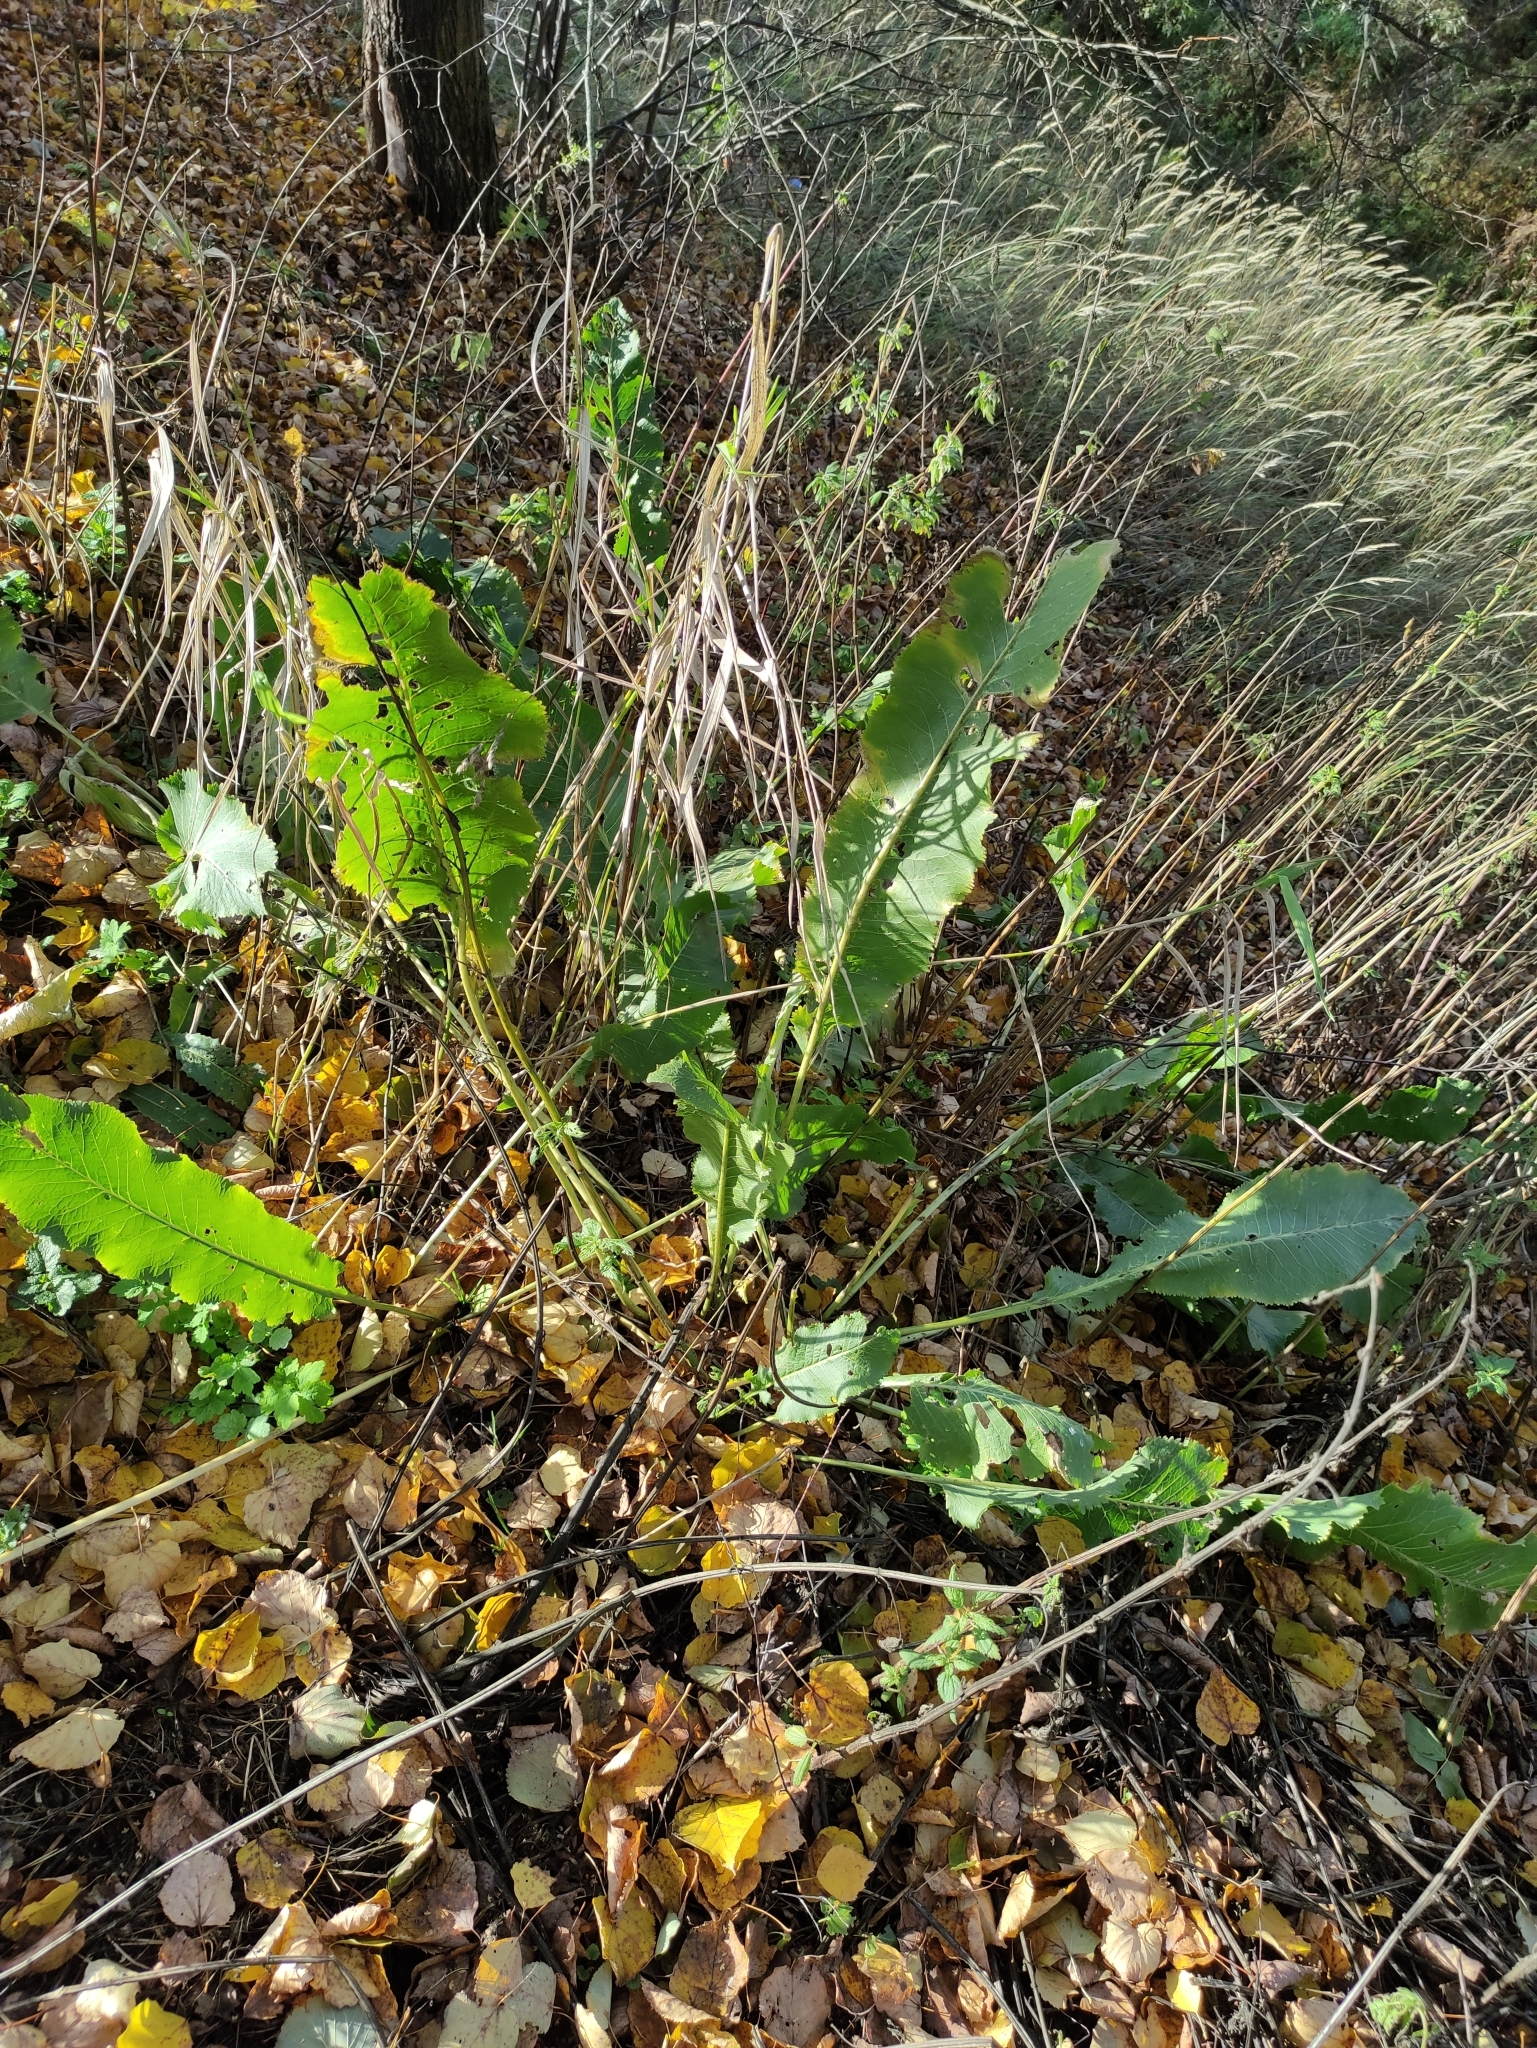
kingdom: Plantae
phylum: Tracheophyta
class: Magnoliopsida
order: Brassicales
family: Brassicaceae
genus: Armoracia
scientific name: Armoracia rusticana
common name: Horseradish
